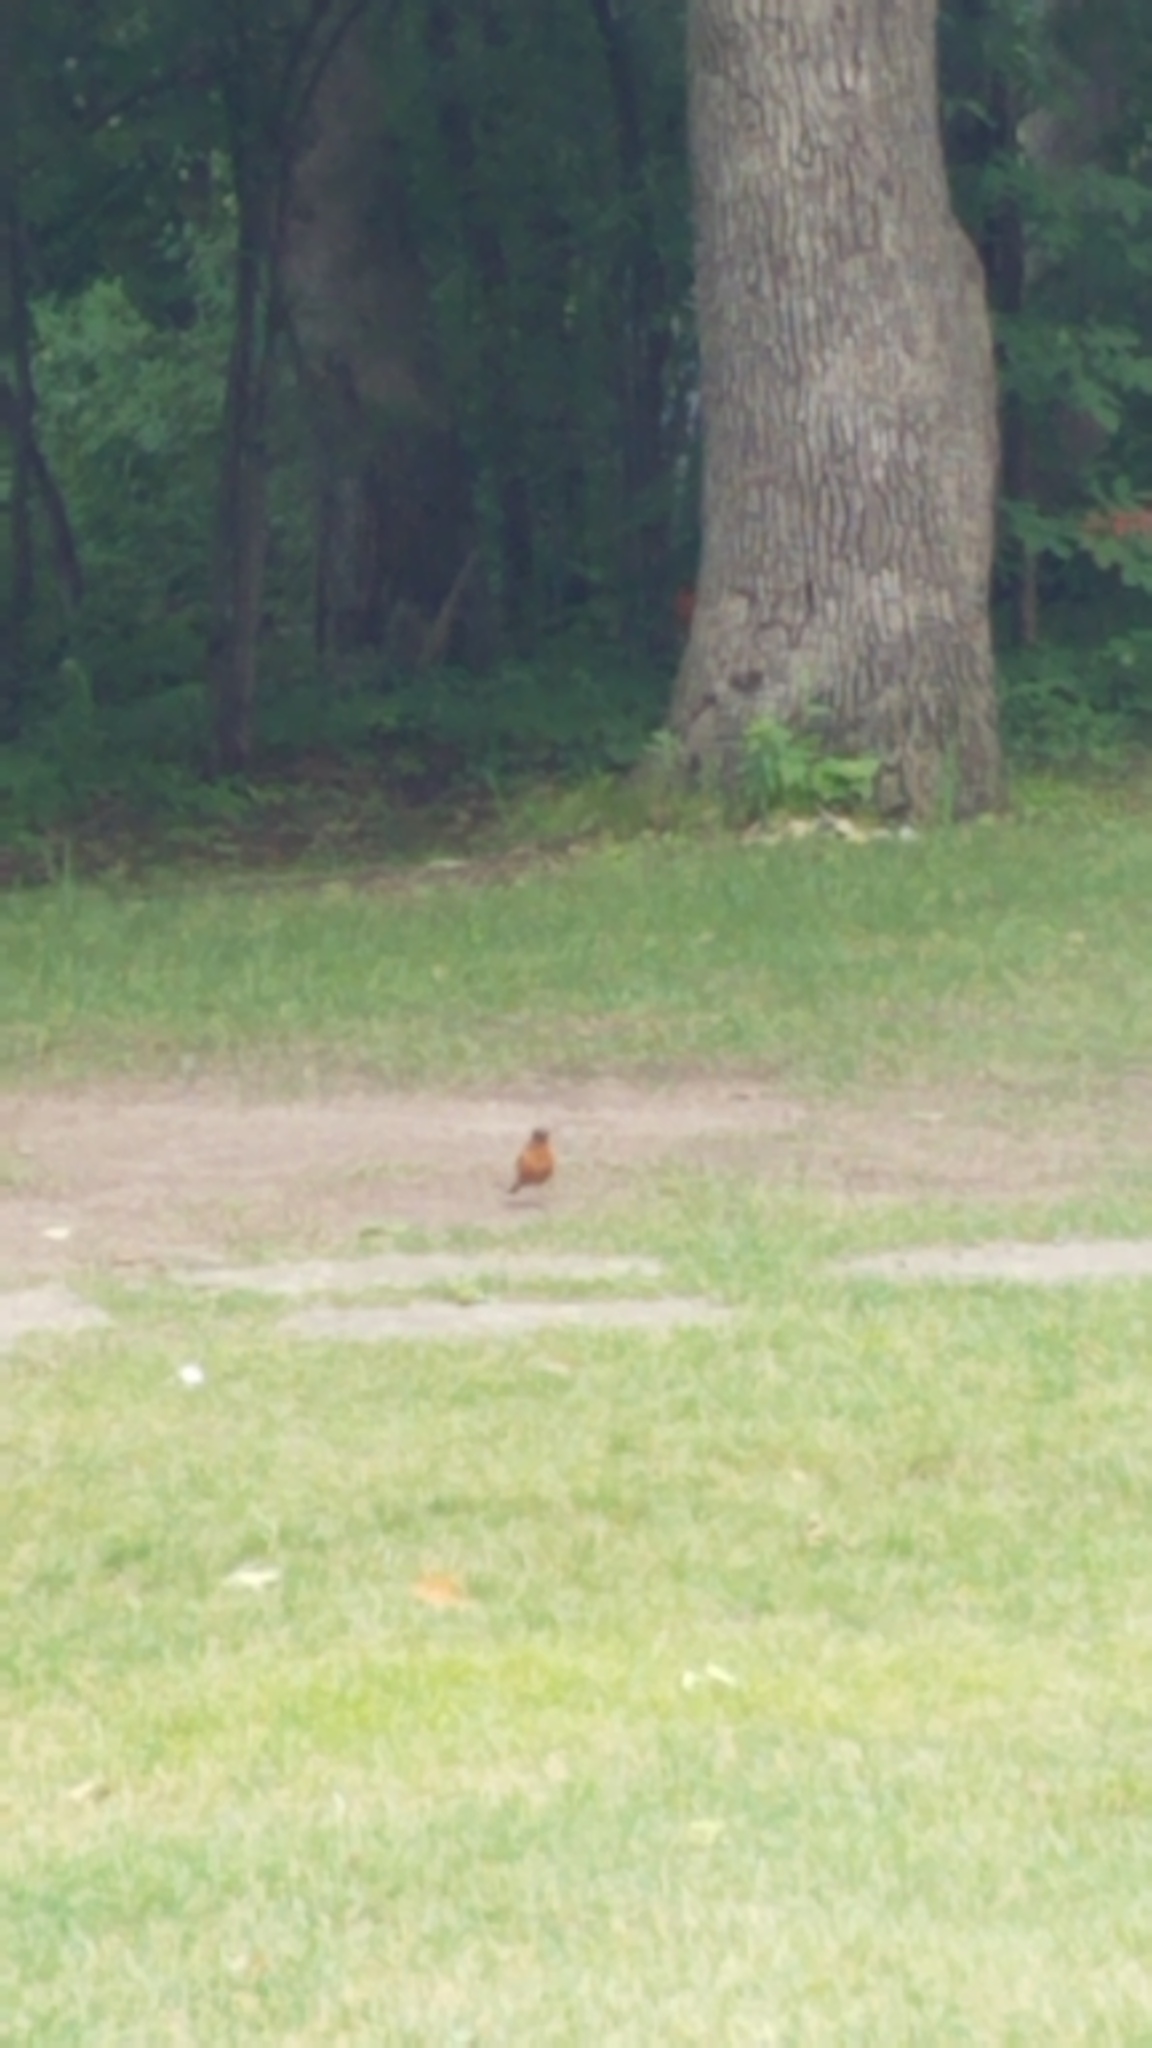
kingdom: Animalia
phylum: Chordata
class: Aves
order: Passeriformes
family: Turdidae
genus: Turdus
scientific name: Turdus migratorius
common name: American robin
